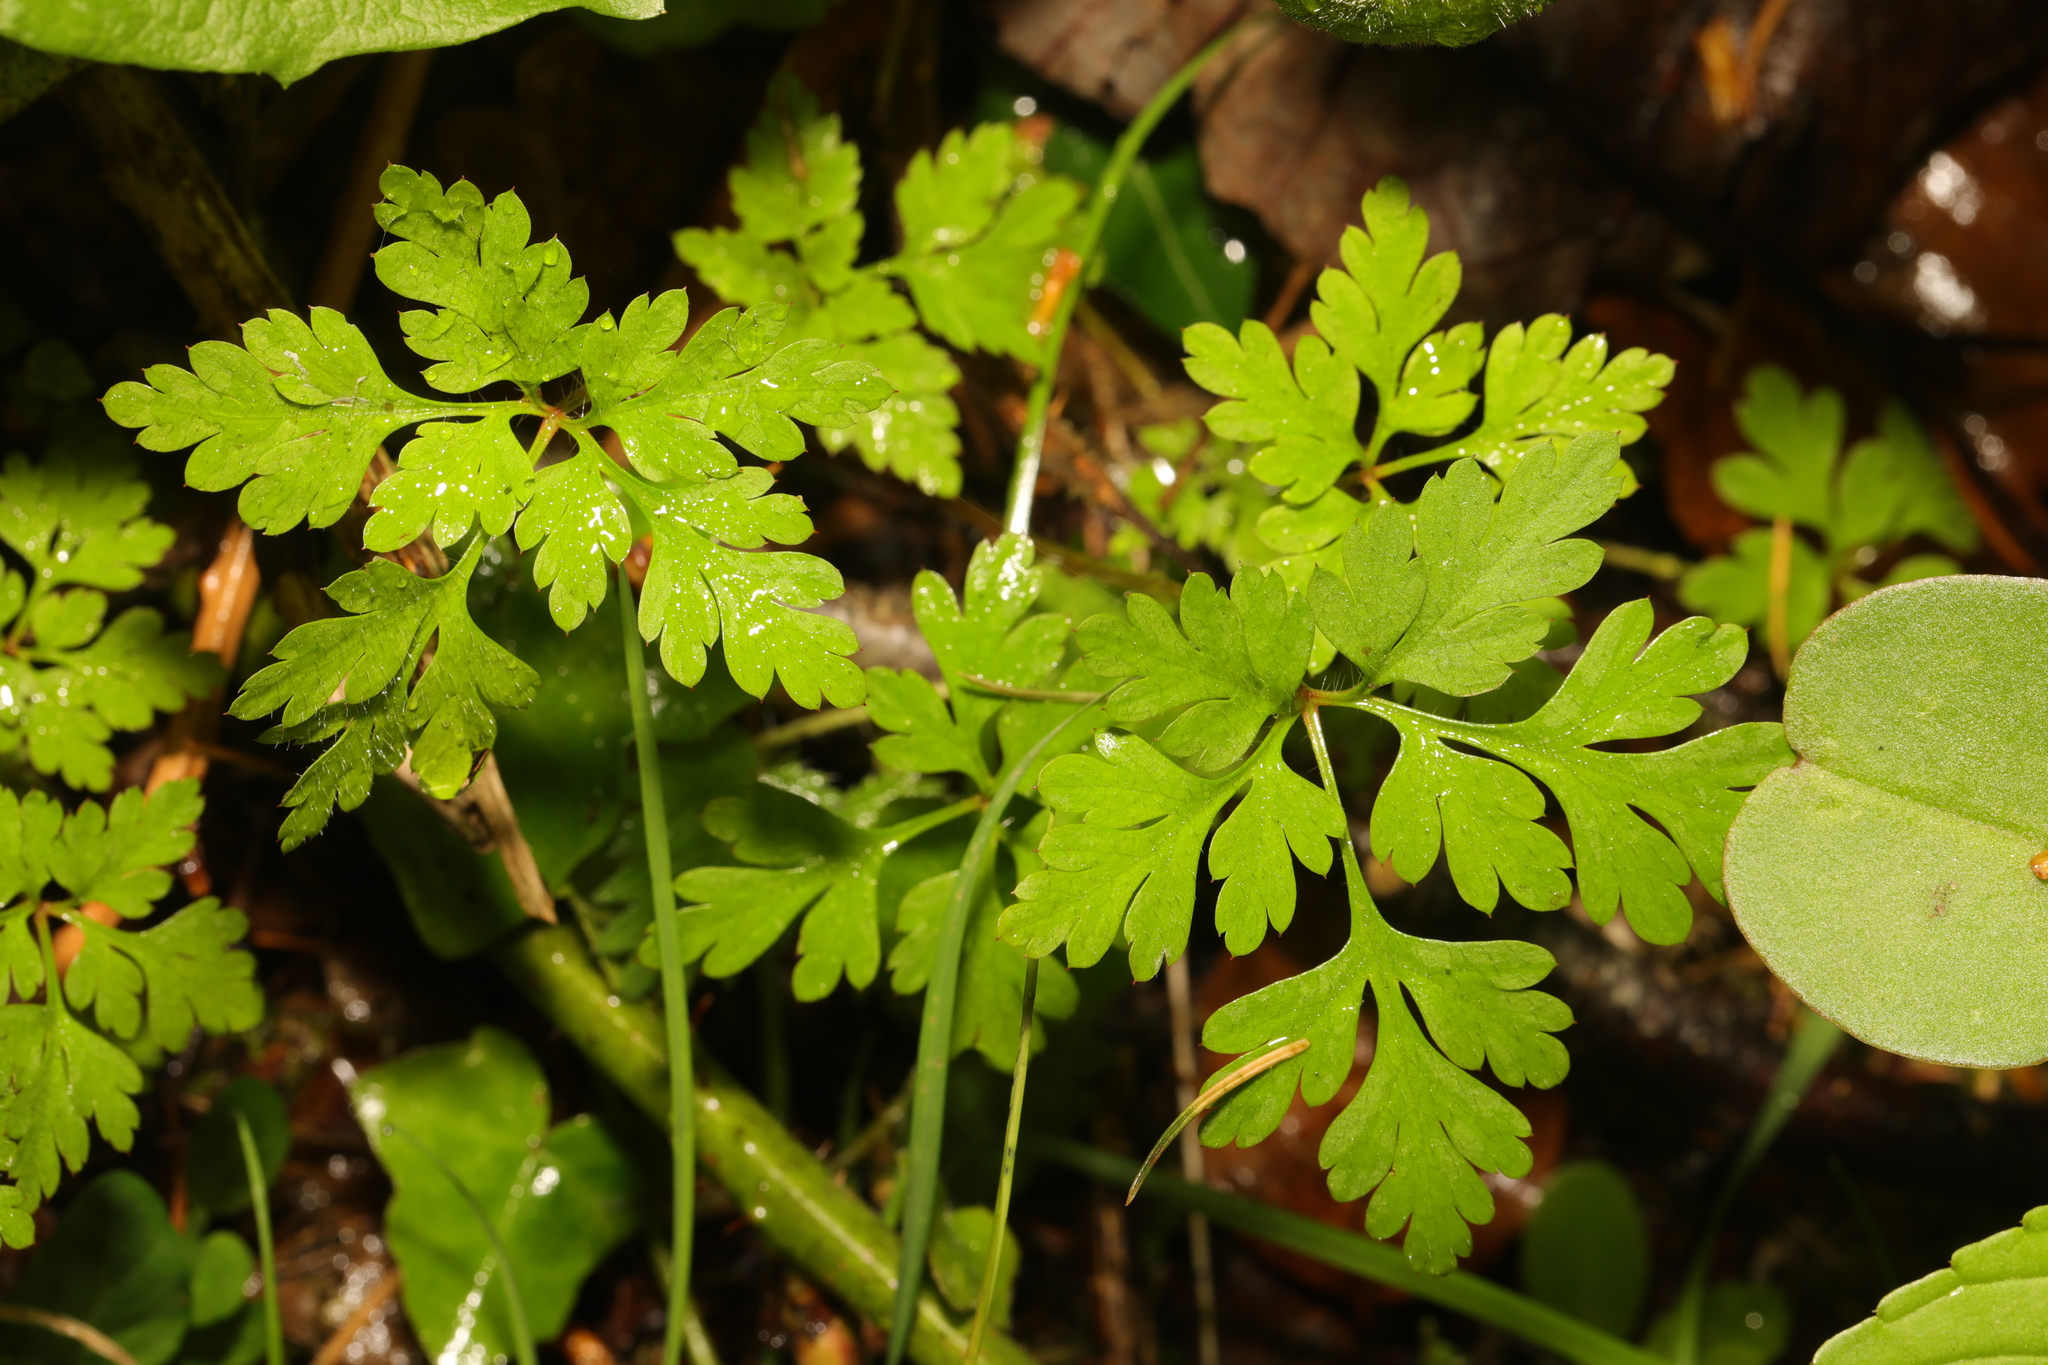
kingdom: Plantae
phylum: Tracheophyta
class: Magnoliopsida
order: Geraniales
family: Geraniaceae
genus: Geranium
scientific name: Geranium robertianum
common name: Herb-robert
